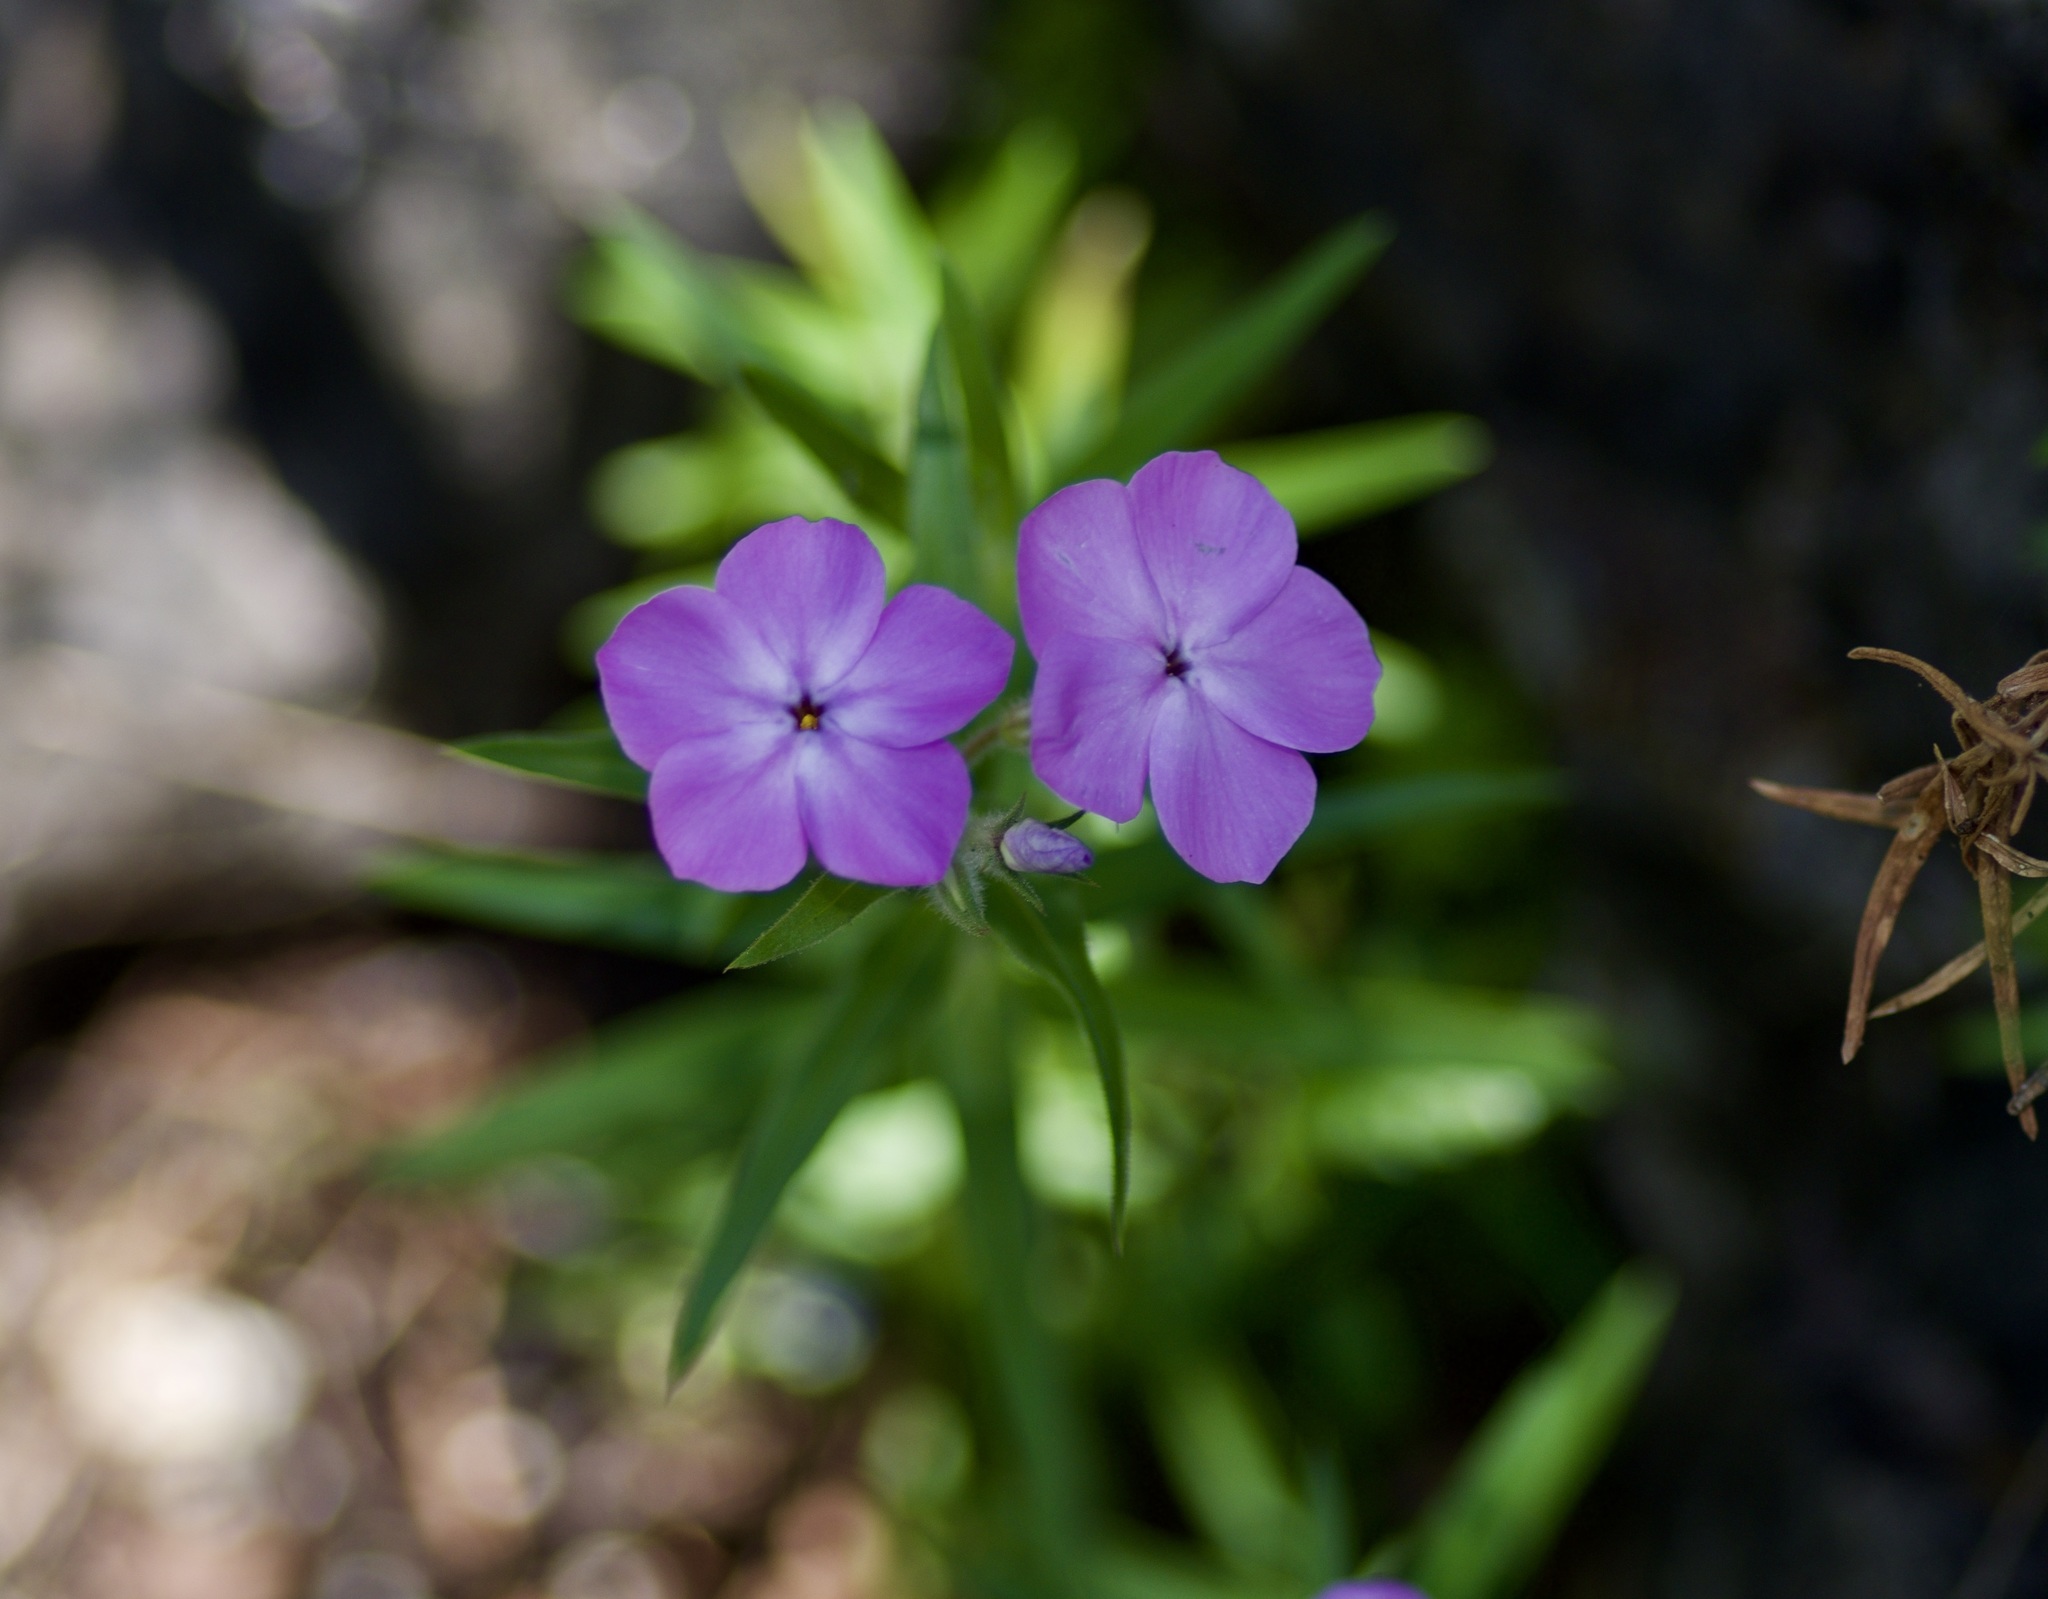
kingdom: Plantae
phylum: Tracheophyta
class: Magnoliopsida
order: Ericales
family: Polemoniaceae
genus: Phlox
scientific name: Phlox pilosa
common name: Prairie phlox
